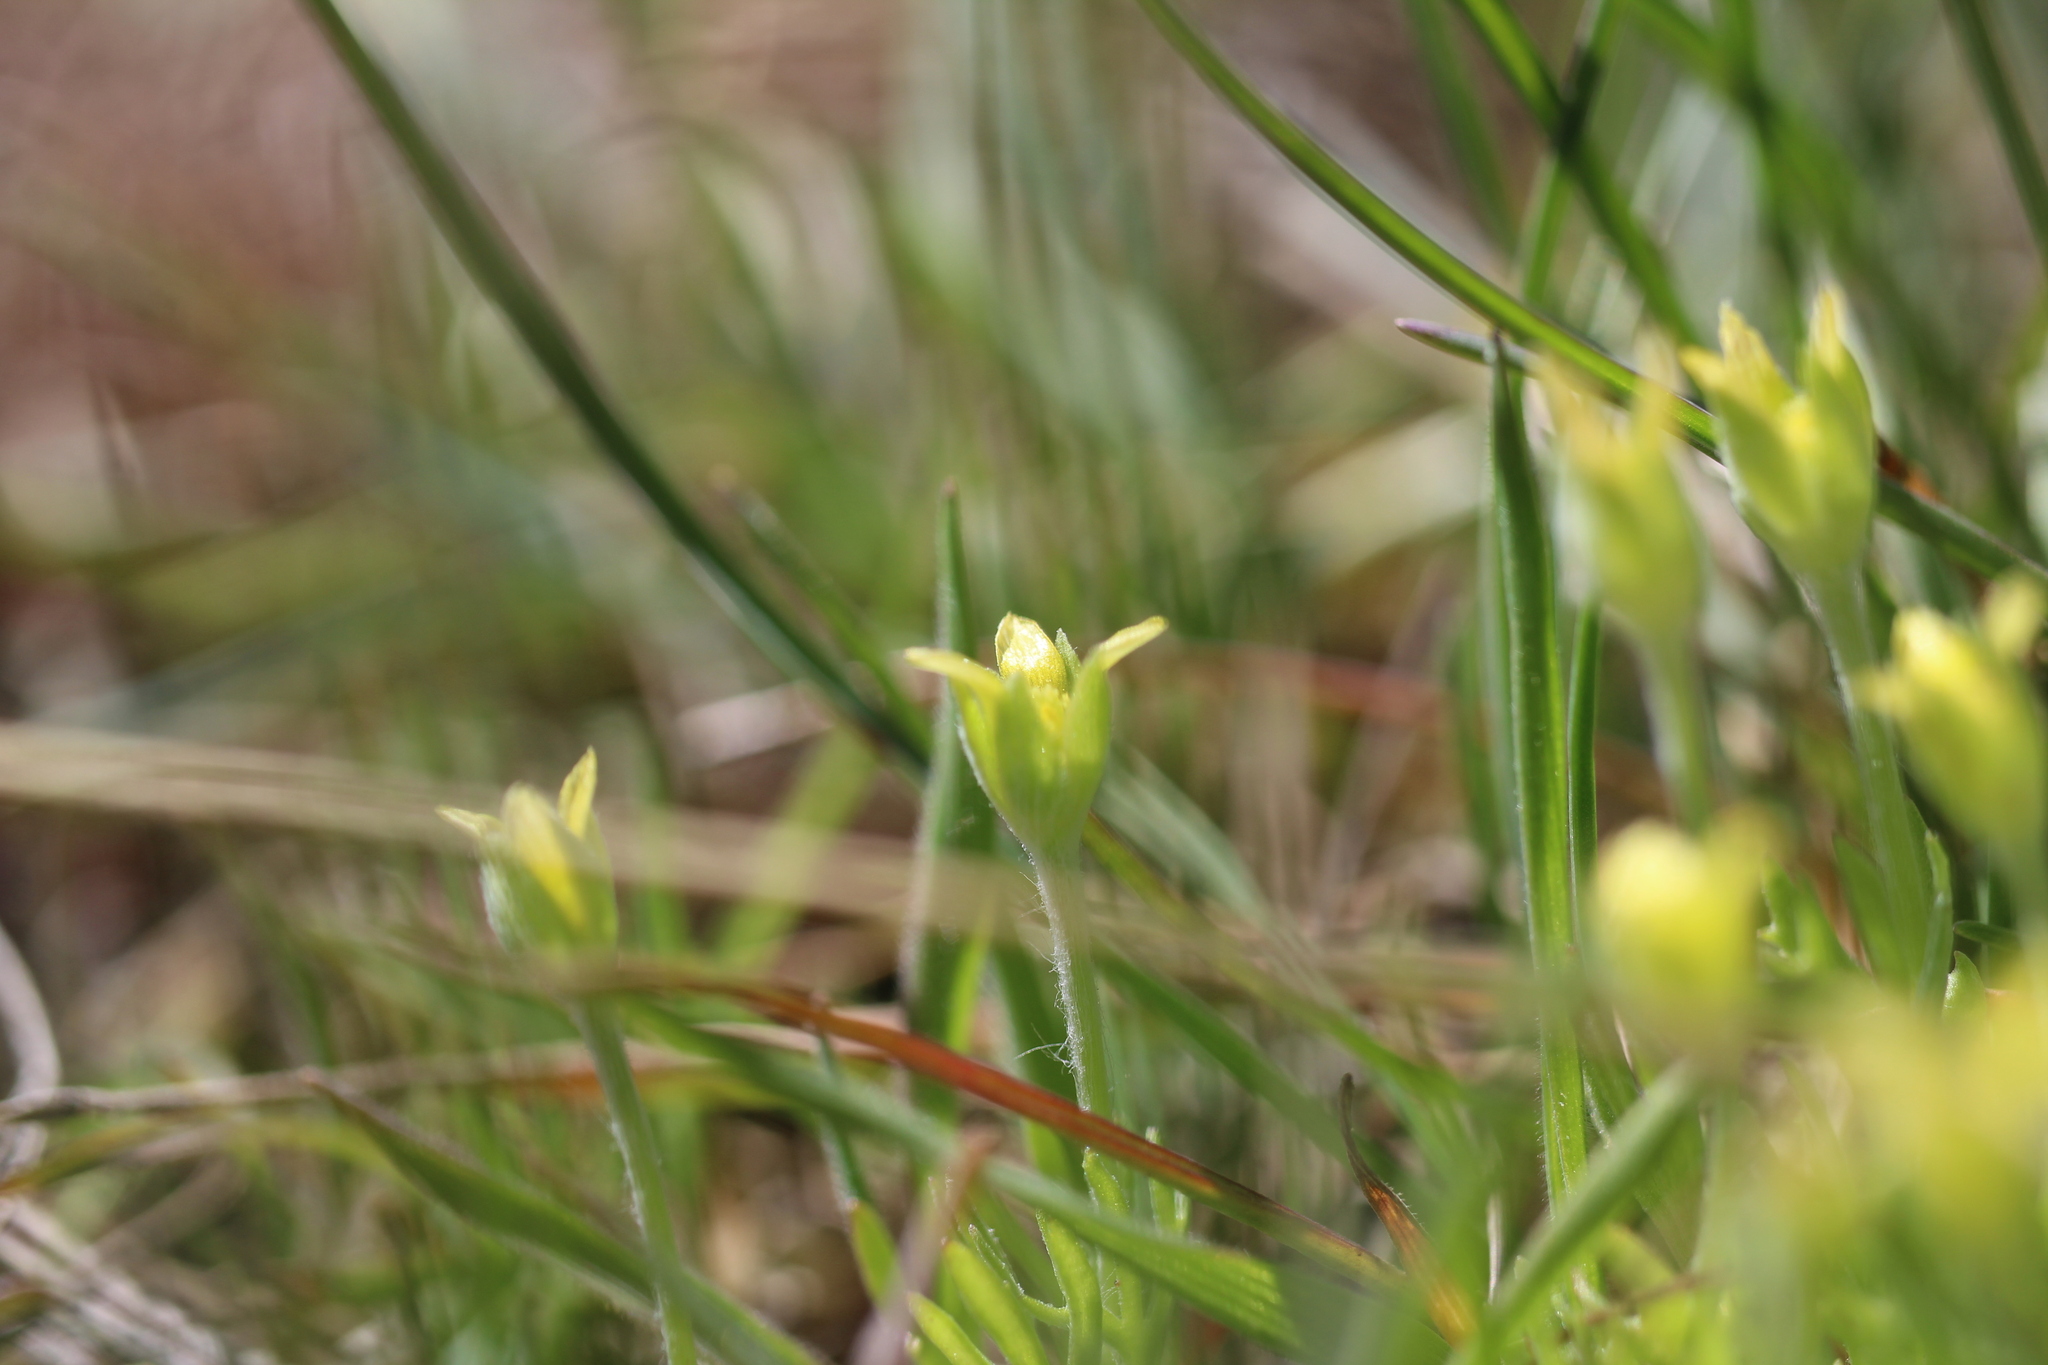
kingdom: Plantae
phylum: Tracheophyta
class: Magnoliopsida
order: Ranunculales
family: Ranunculaceae
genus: Ceratocephala
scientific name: Ceratocephala orthoceras
